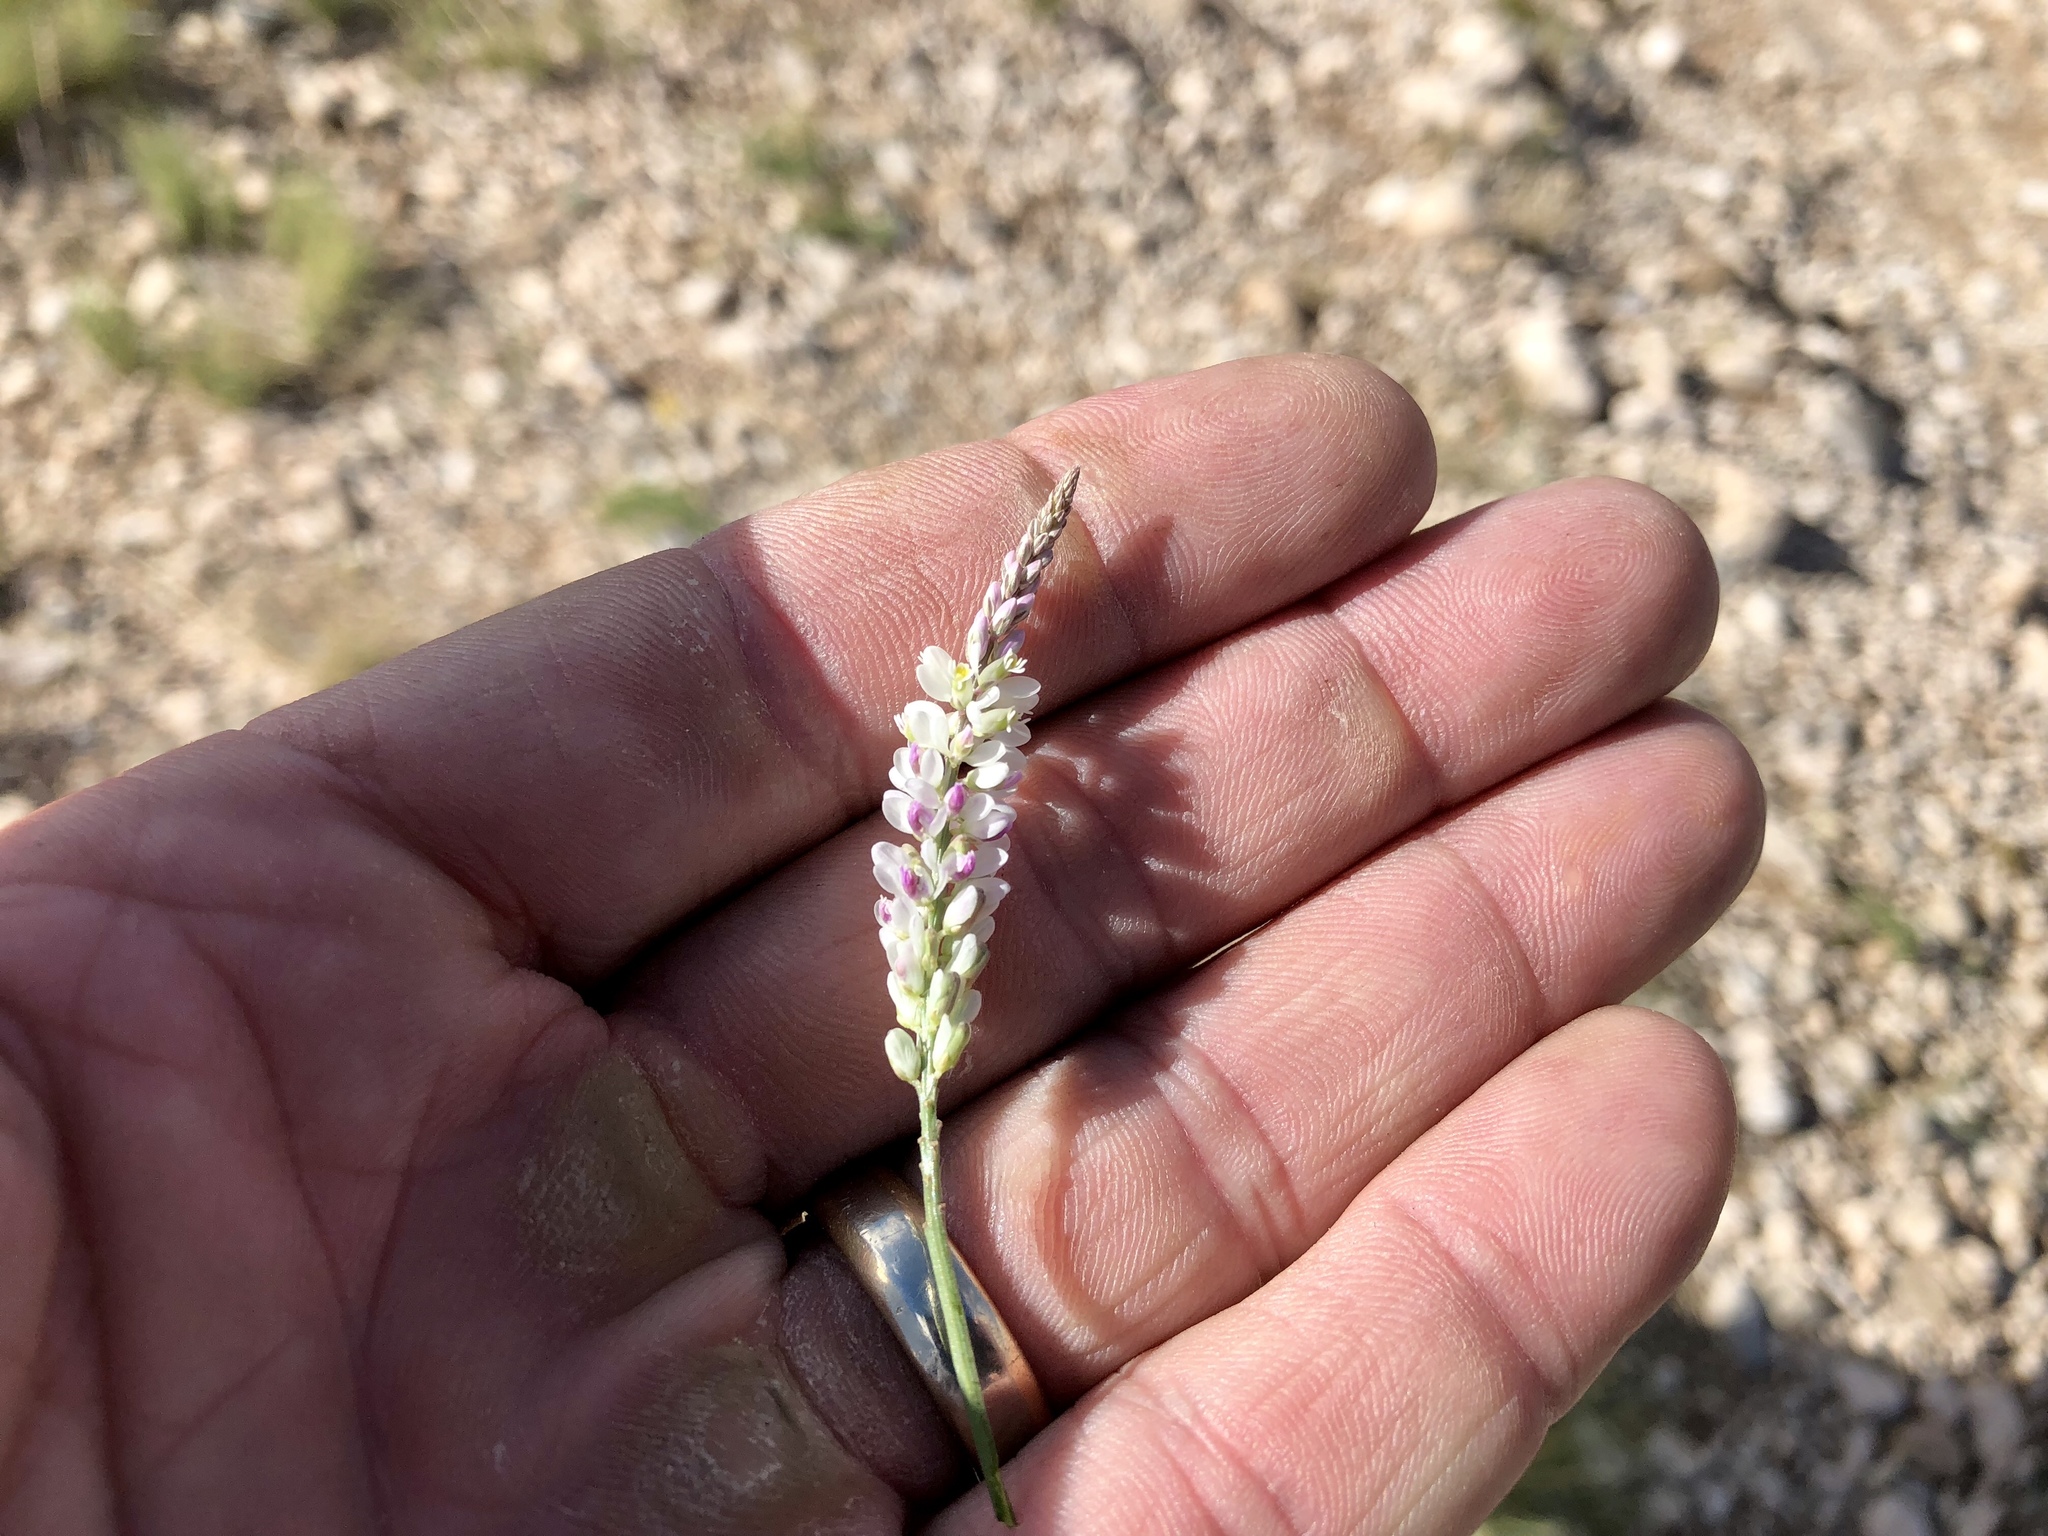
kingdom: Plantae
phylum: Tracheophyta
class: Magnoliopsida
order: Fabales
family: Polygalaceae
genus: Polygala
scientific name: Polygala alba
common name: White milkwort
